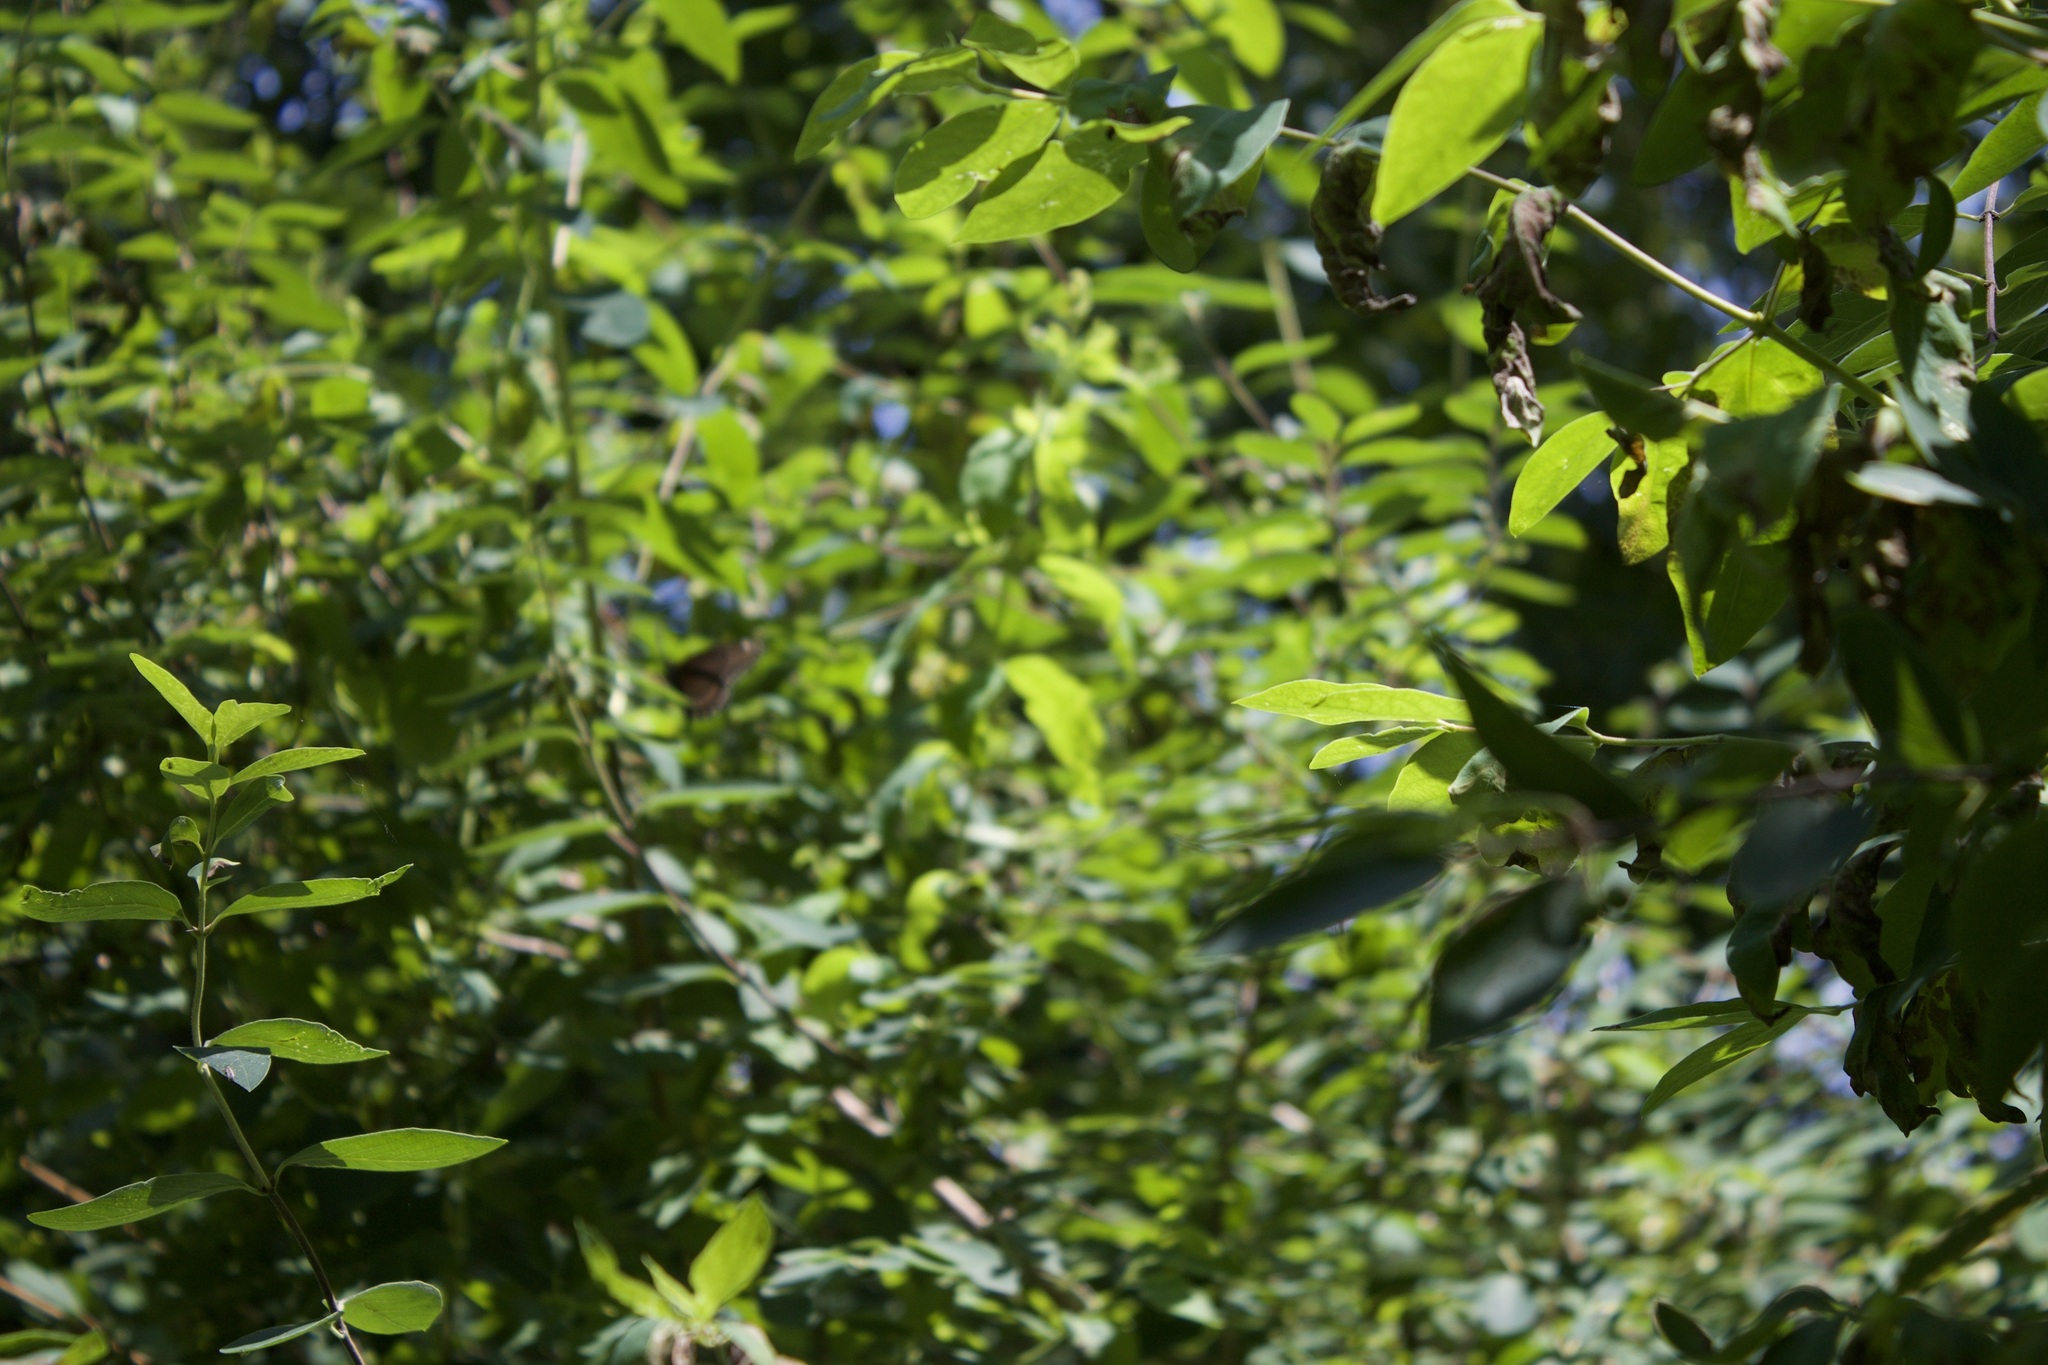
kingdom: Animalia
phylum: Arthropoda
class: Insecta
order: Lepidoptera
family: Nymphalidae
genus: Limenitis
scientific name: Limenitis arthemis
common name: Red-spotted admiral
